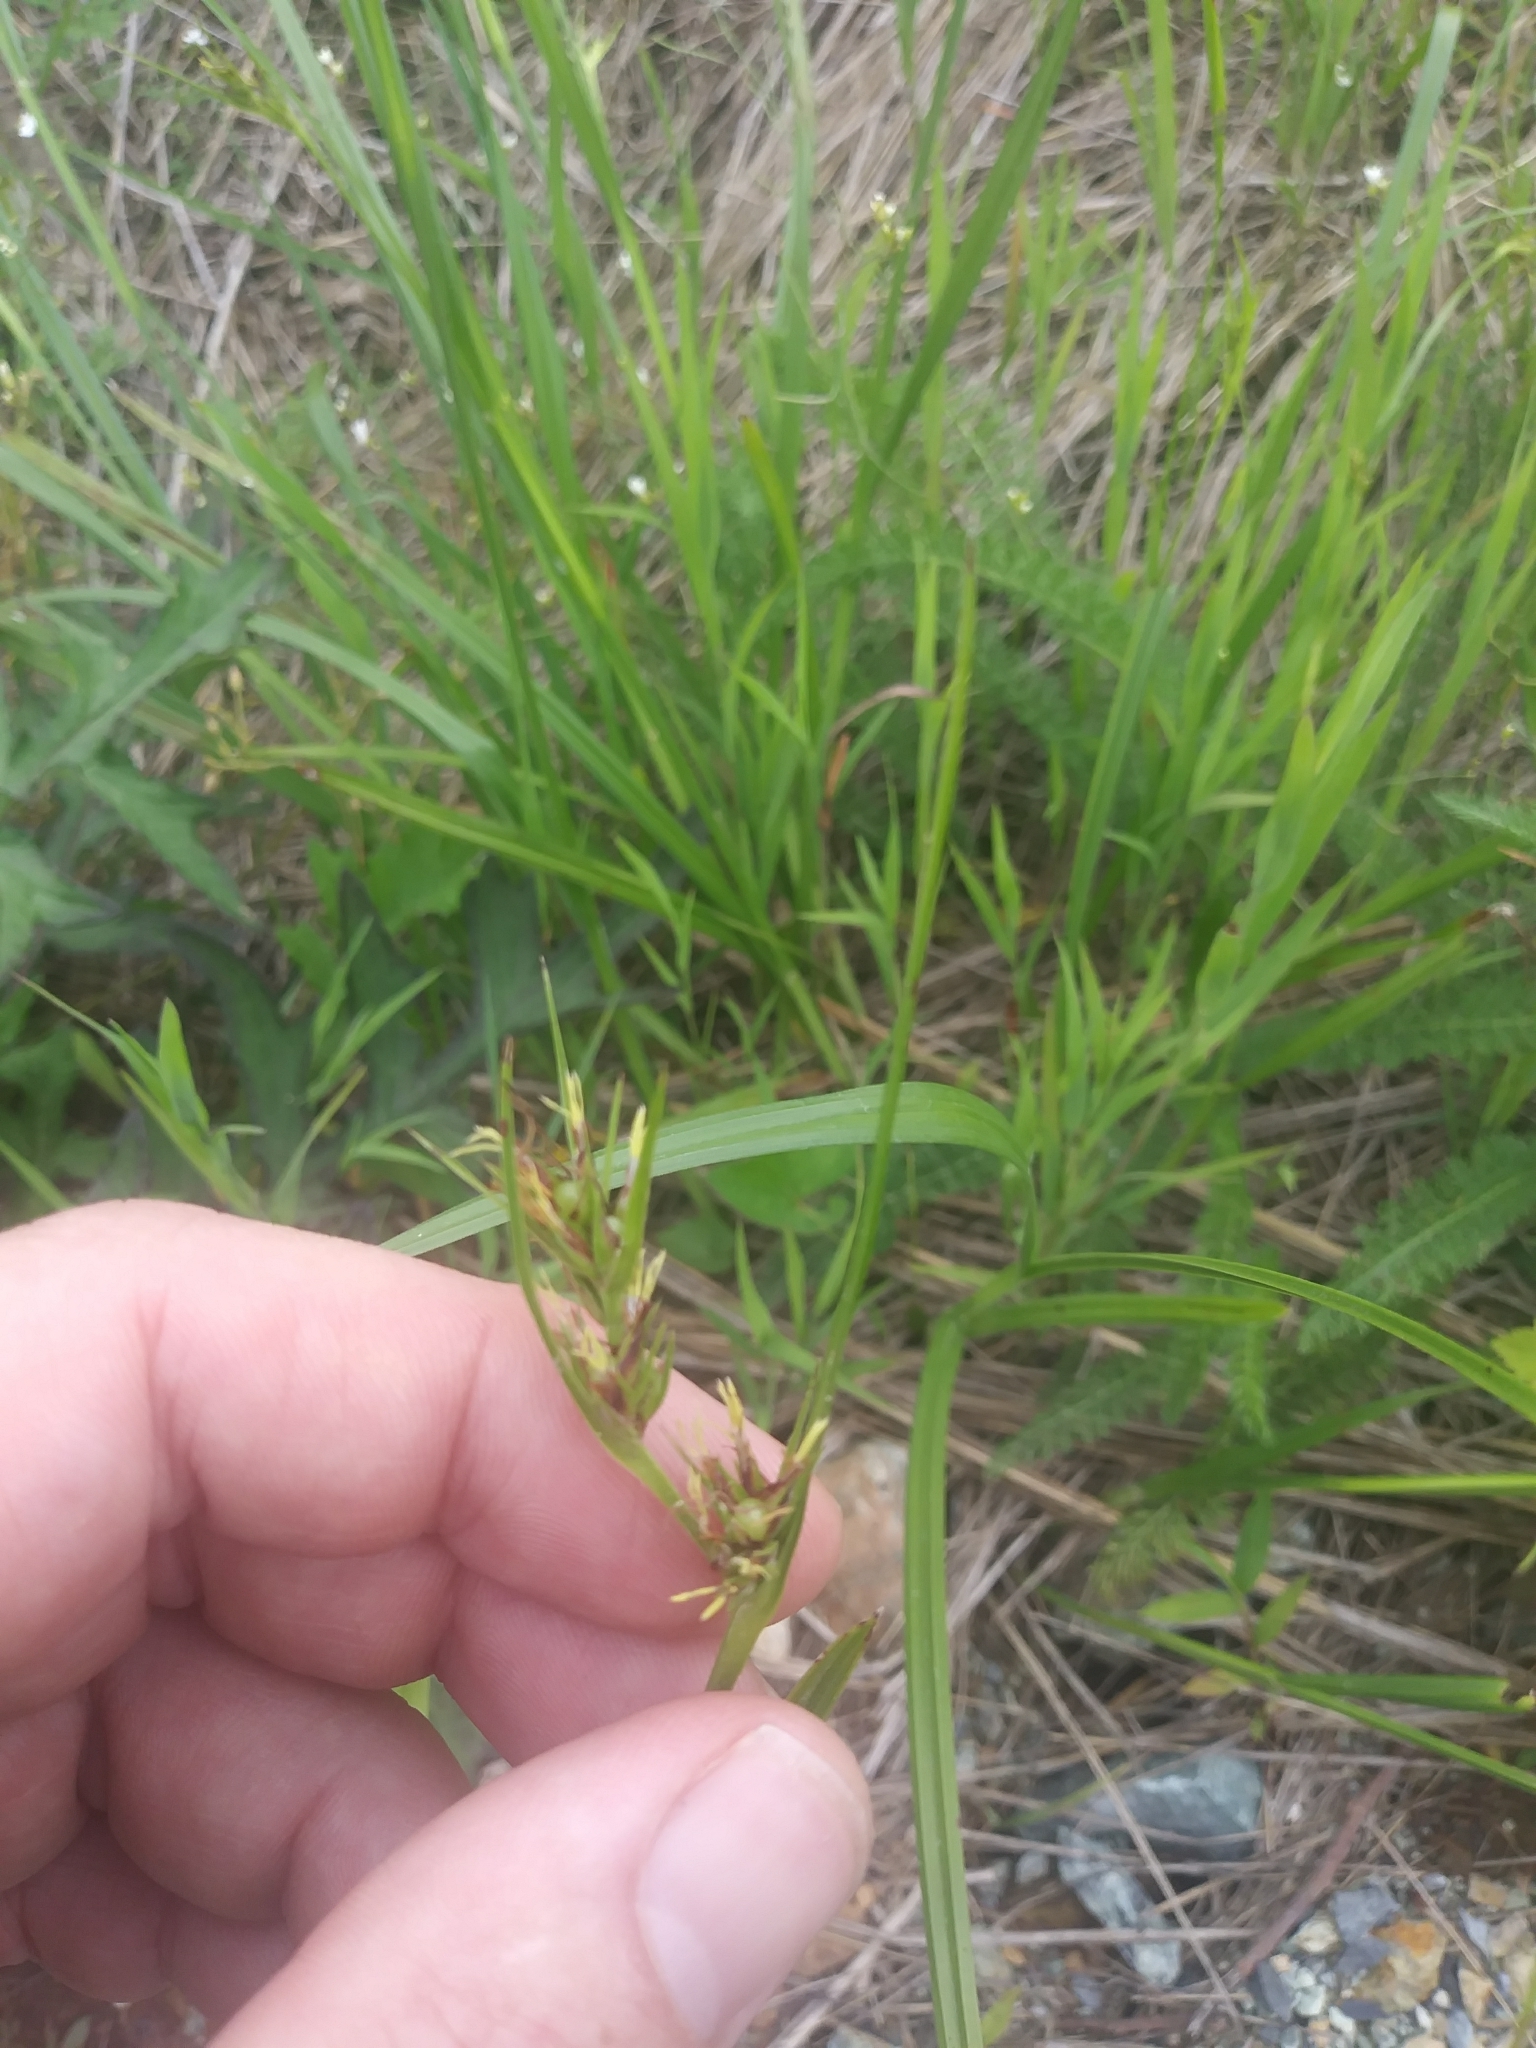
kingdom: Plantae
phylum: Tracheophyta
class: Liliopsida
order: Poales
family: Cyperaceae
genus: Scleria
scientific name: Scleria triglomerata
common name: Whip nutrush
